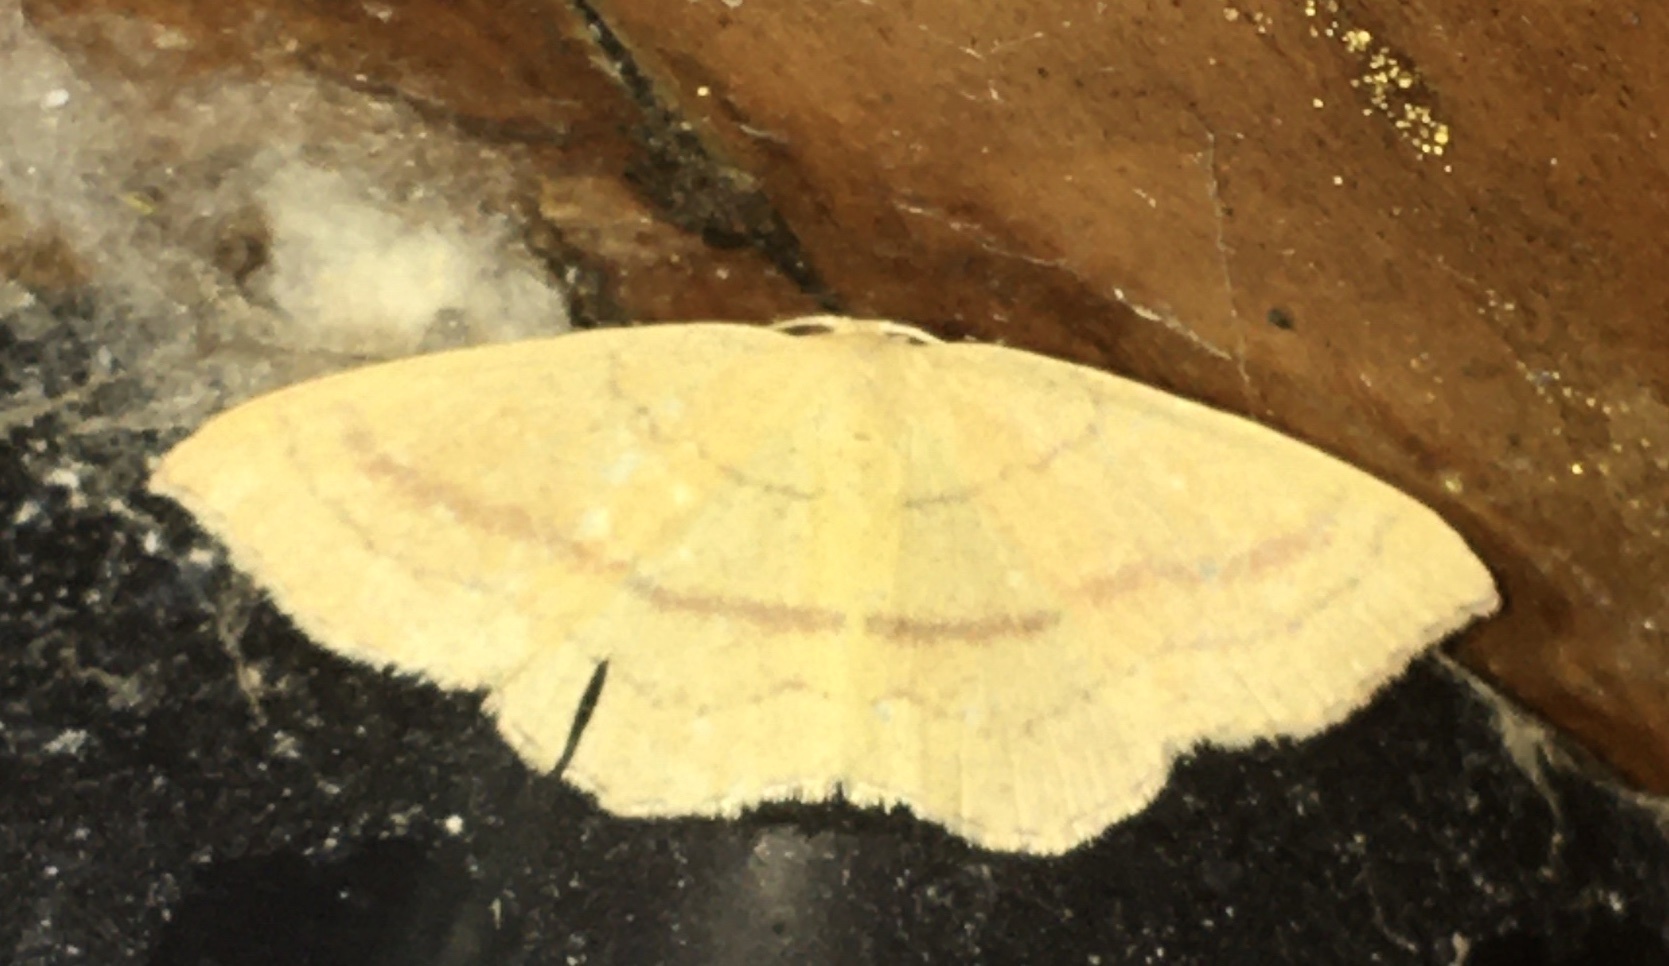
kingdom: Animalia
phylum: Arthropoda
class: Insecta
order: Lepidoptera
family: Geometridae
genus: Cyclophora
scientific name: Cyclophora linearia
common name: Clay triple-lines
